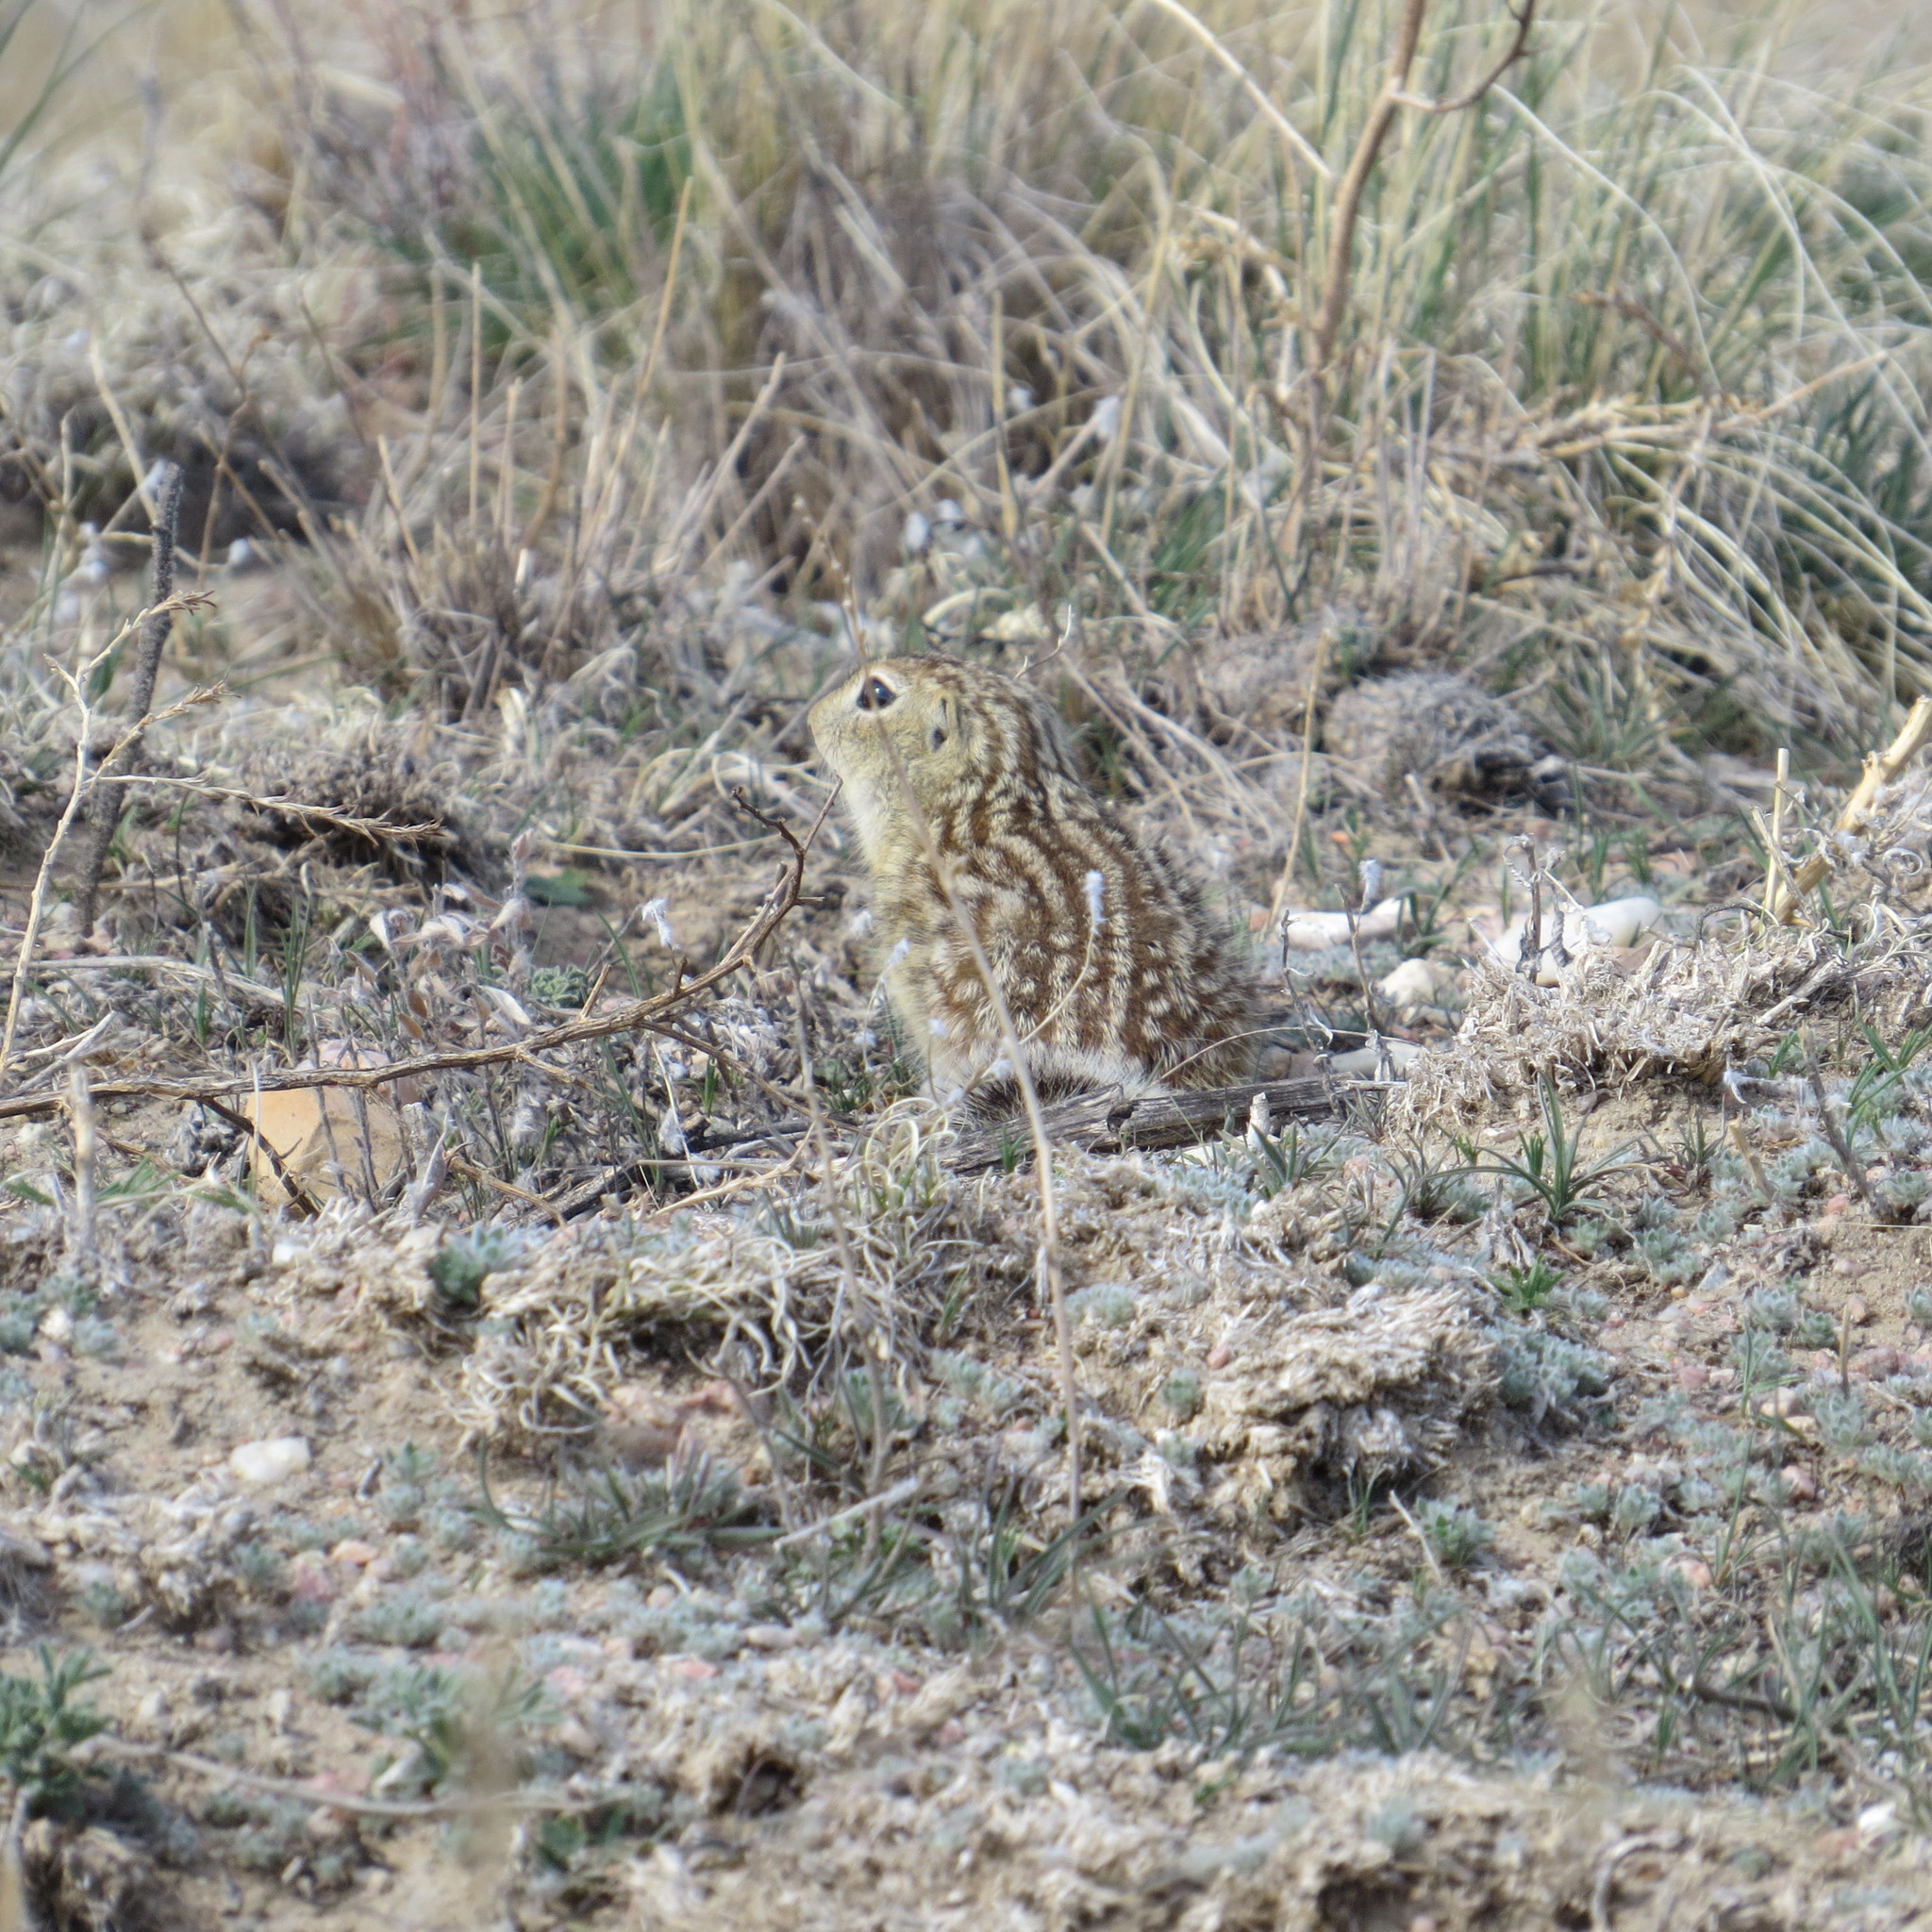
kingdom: Animalia
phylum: Chordata
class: Mammalia
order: Rodentia
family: Sciuridae
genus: Ictidomys
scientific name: Ictidomys tridecemlineatus
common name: Thirteen-lined ground squirrel
